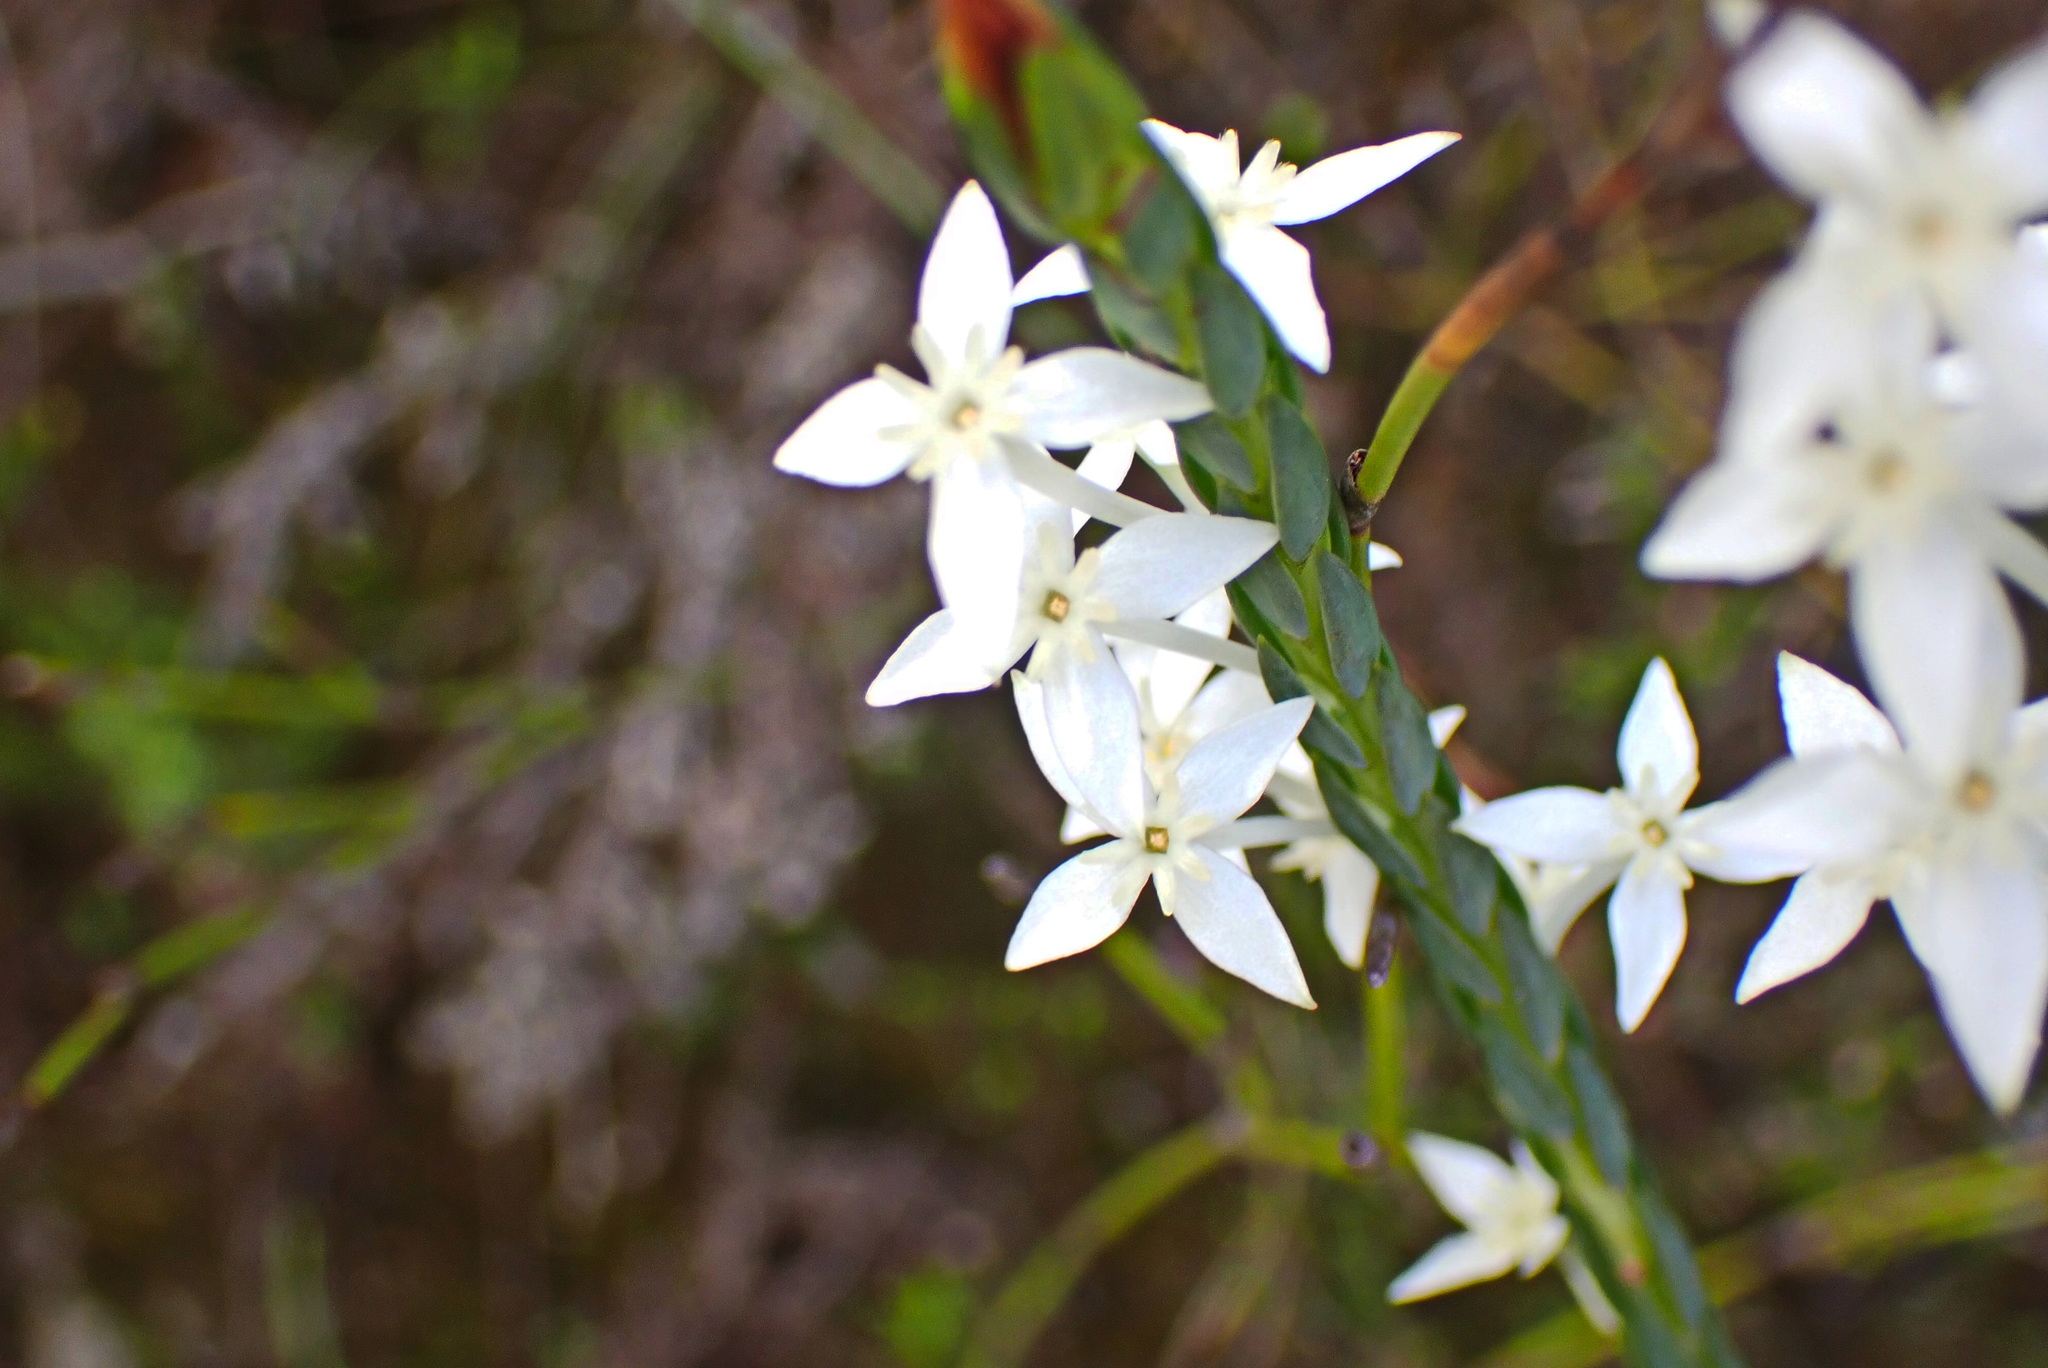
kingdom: Plantae
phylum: Tracheophyta
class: Magnoliopsida
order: Malvales
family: Thymelaeaceae
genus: Struthiola
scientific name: Struthiola myrsinites
